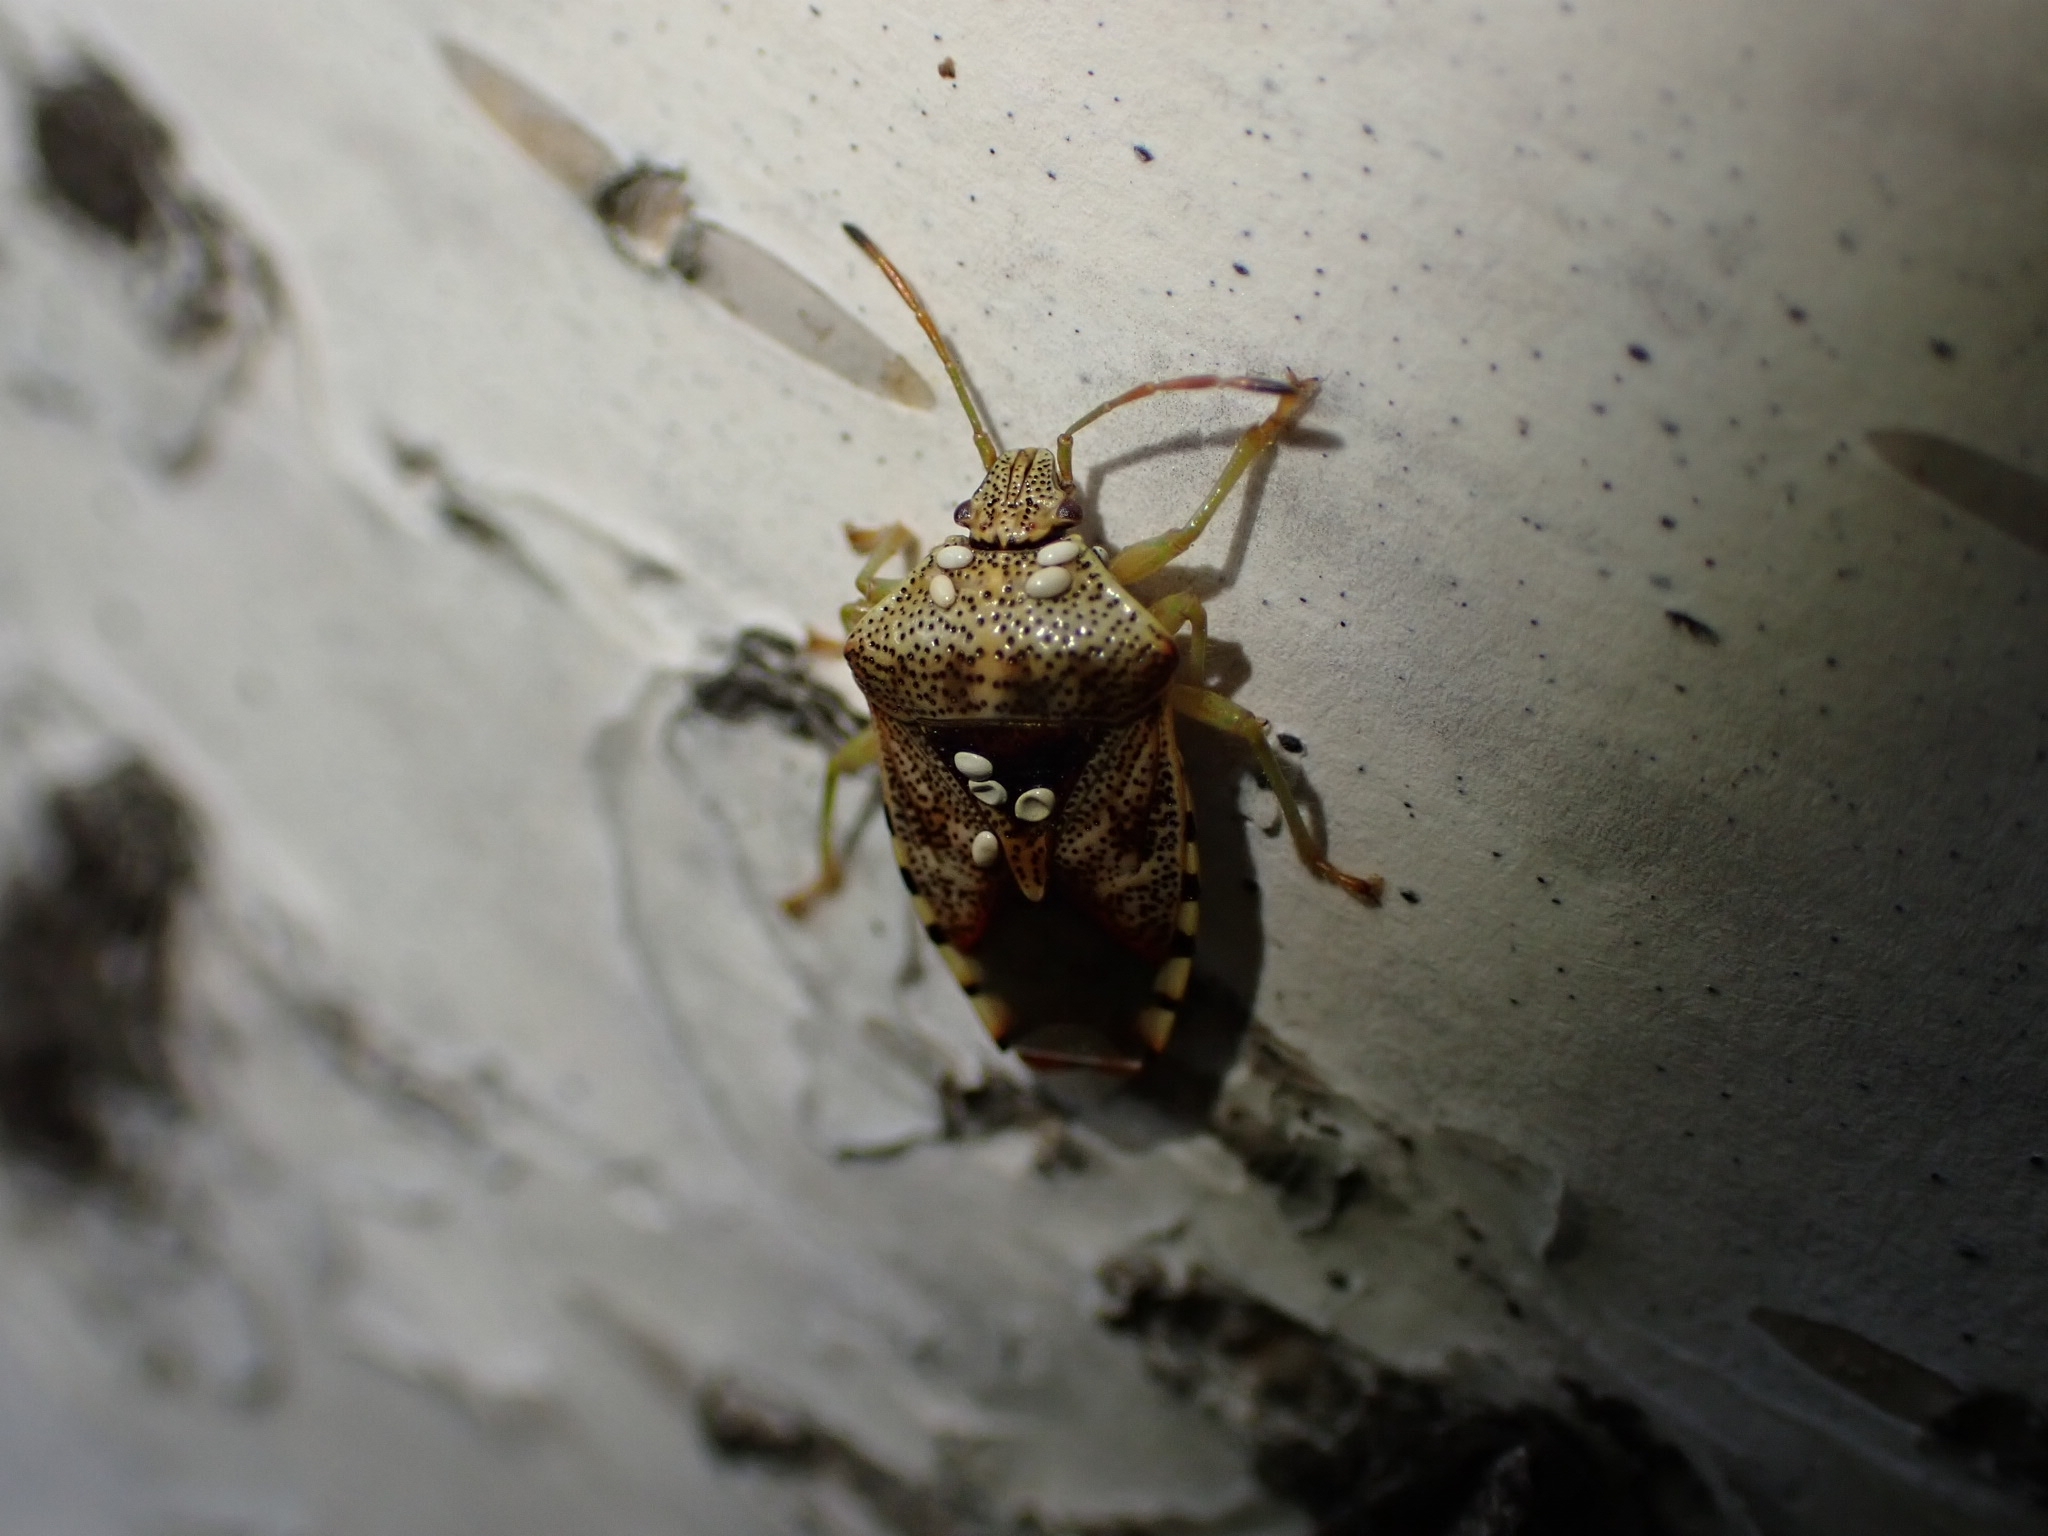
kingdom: Animalia
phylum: Arthropoda
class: Insecta
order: Hemiptera
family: Acanthosomatidae
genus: Elasmucha
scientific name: Elasmucha grisea
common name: Parent bug
